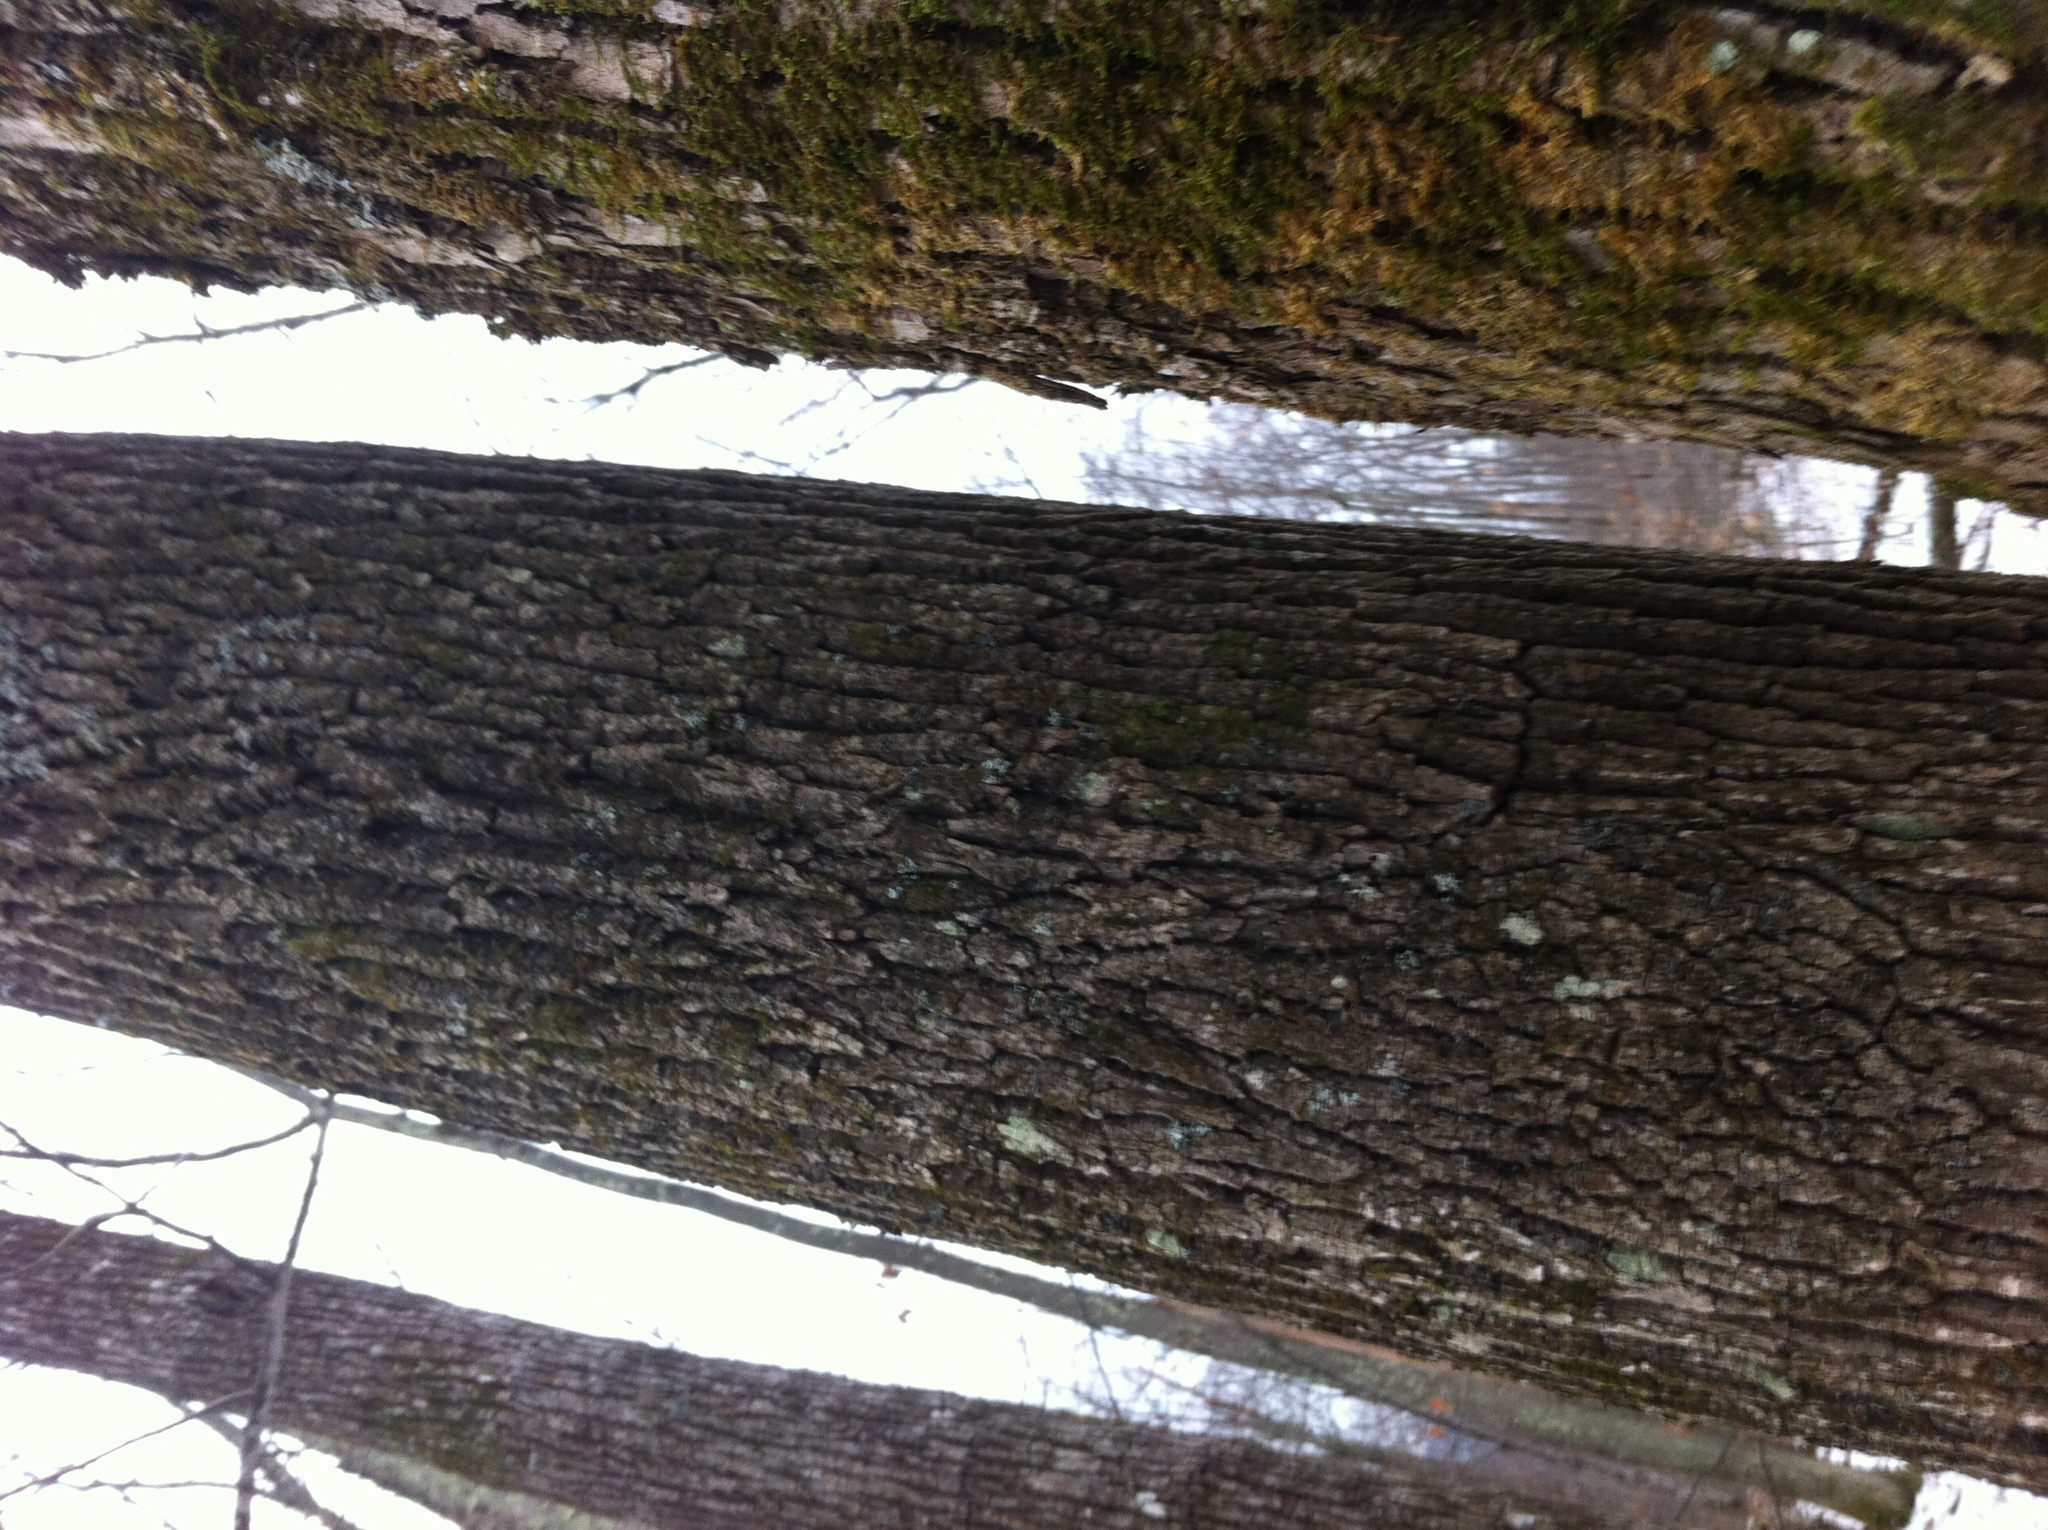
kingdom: Plantae
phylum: Tracheophyta
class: Magnoliopsida
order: Lamiales
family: Oleaceae
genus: Fraxinus
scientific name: Fraxinus americana
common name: White ash
